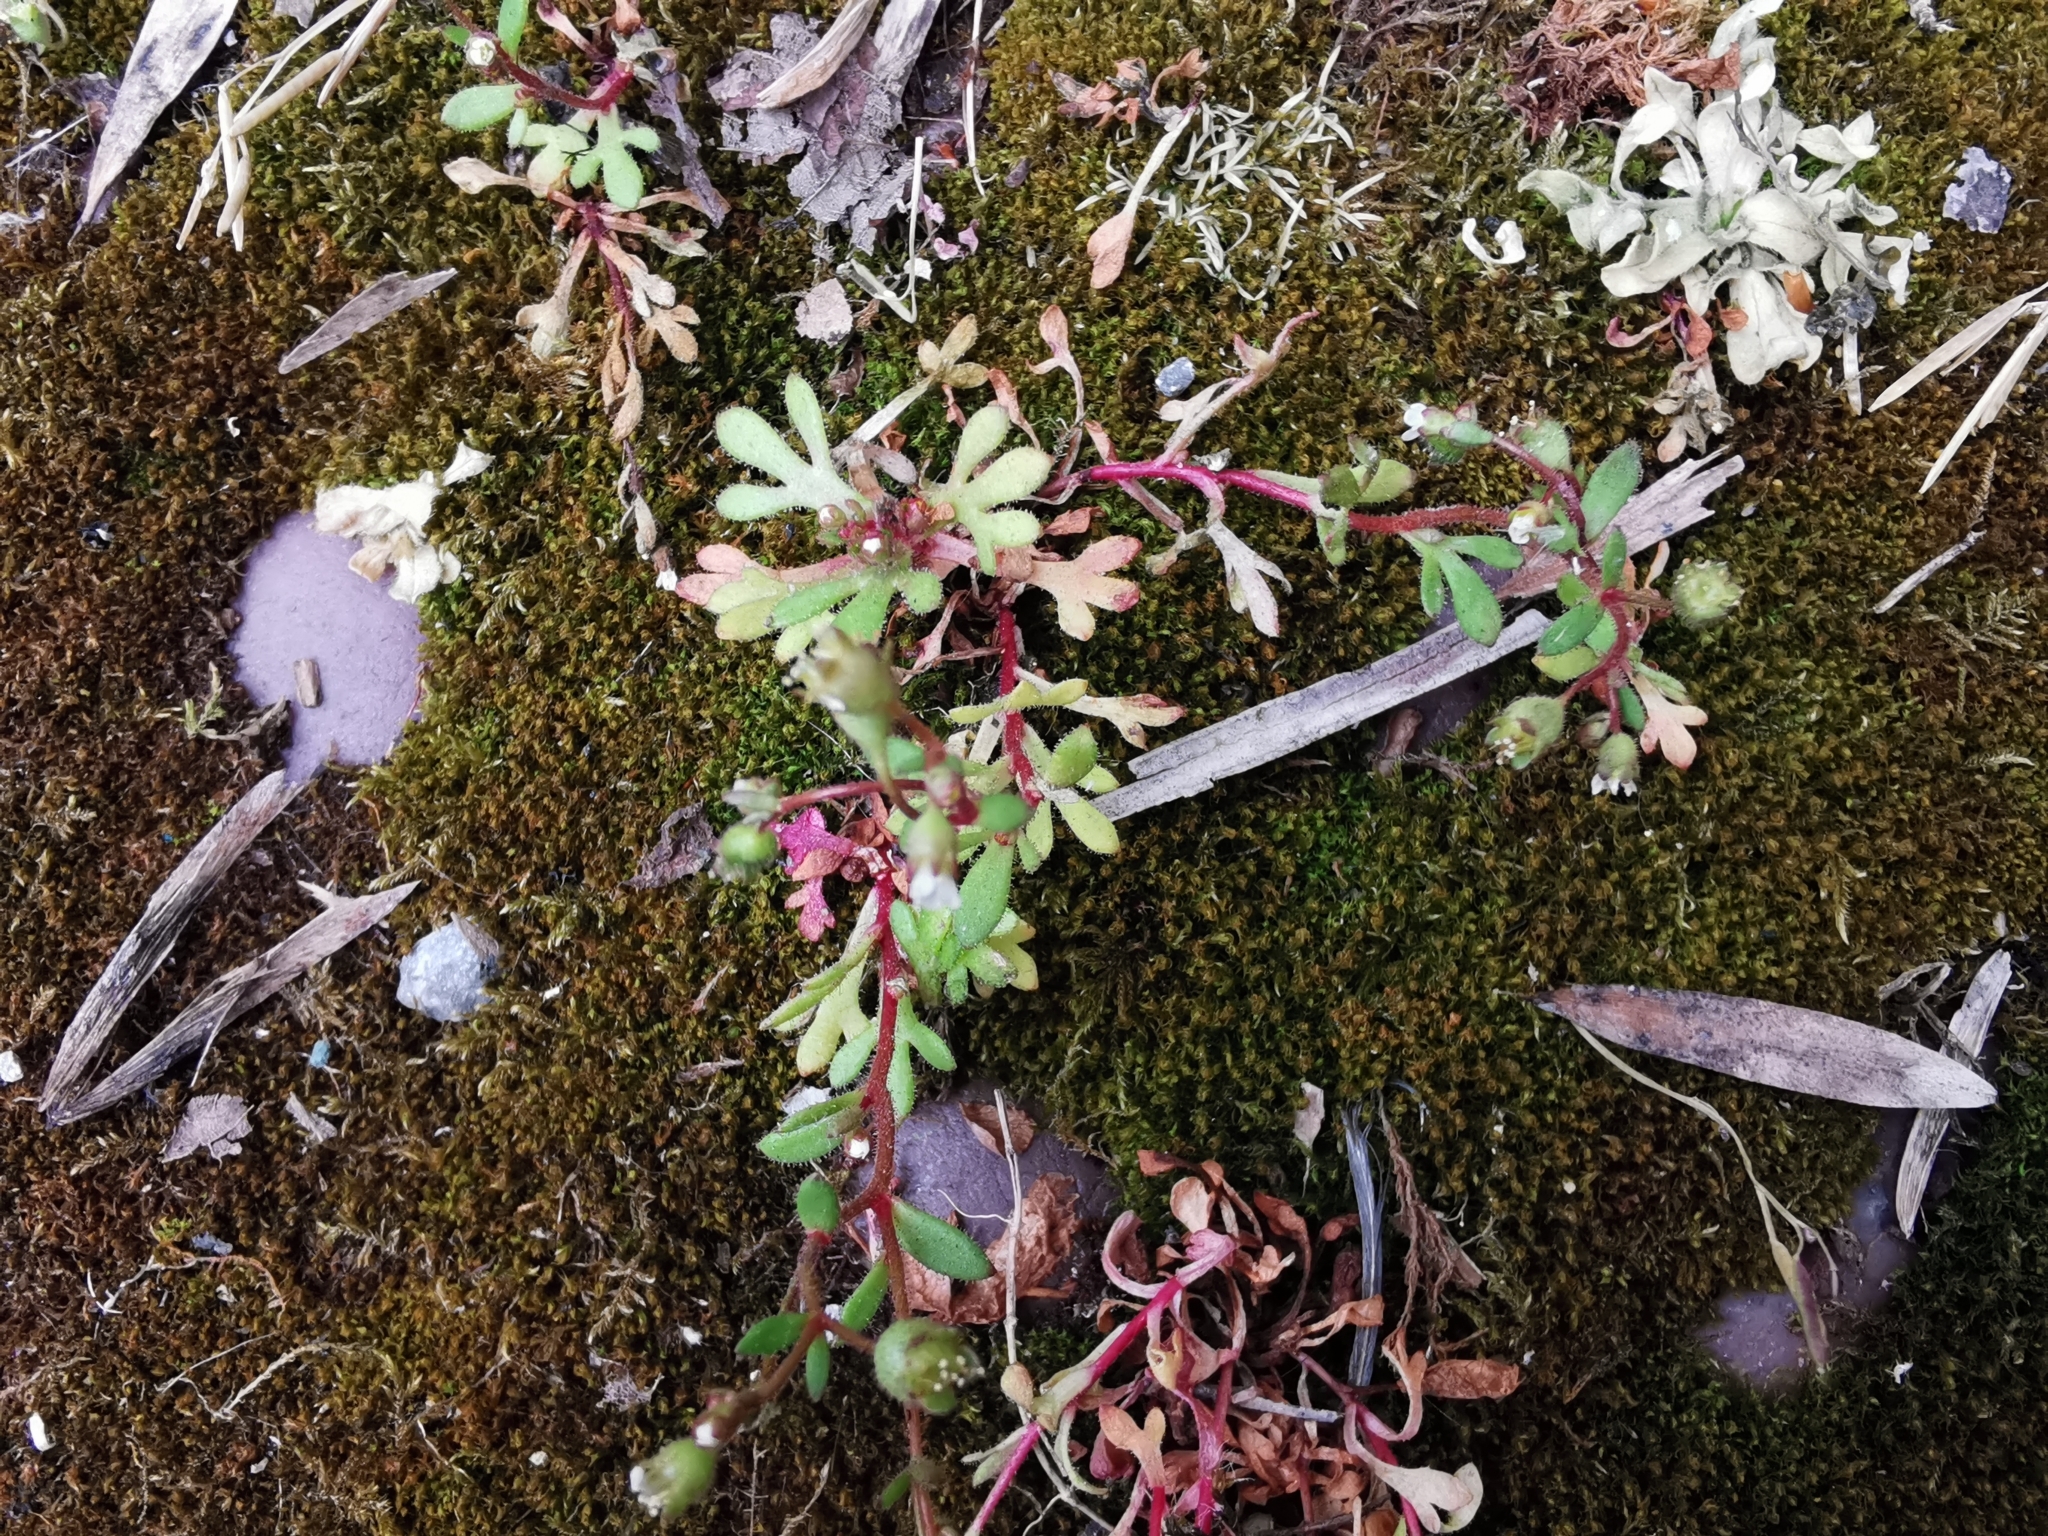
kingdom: Plantae
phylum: Tracheophyta
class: Magnoliopsida
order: Saxifragales
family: Saxifragaceae
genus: Saxifraga
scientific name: Saxifraga tridactylites
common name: Rue-leaved saxifrage
